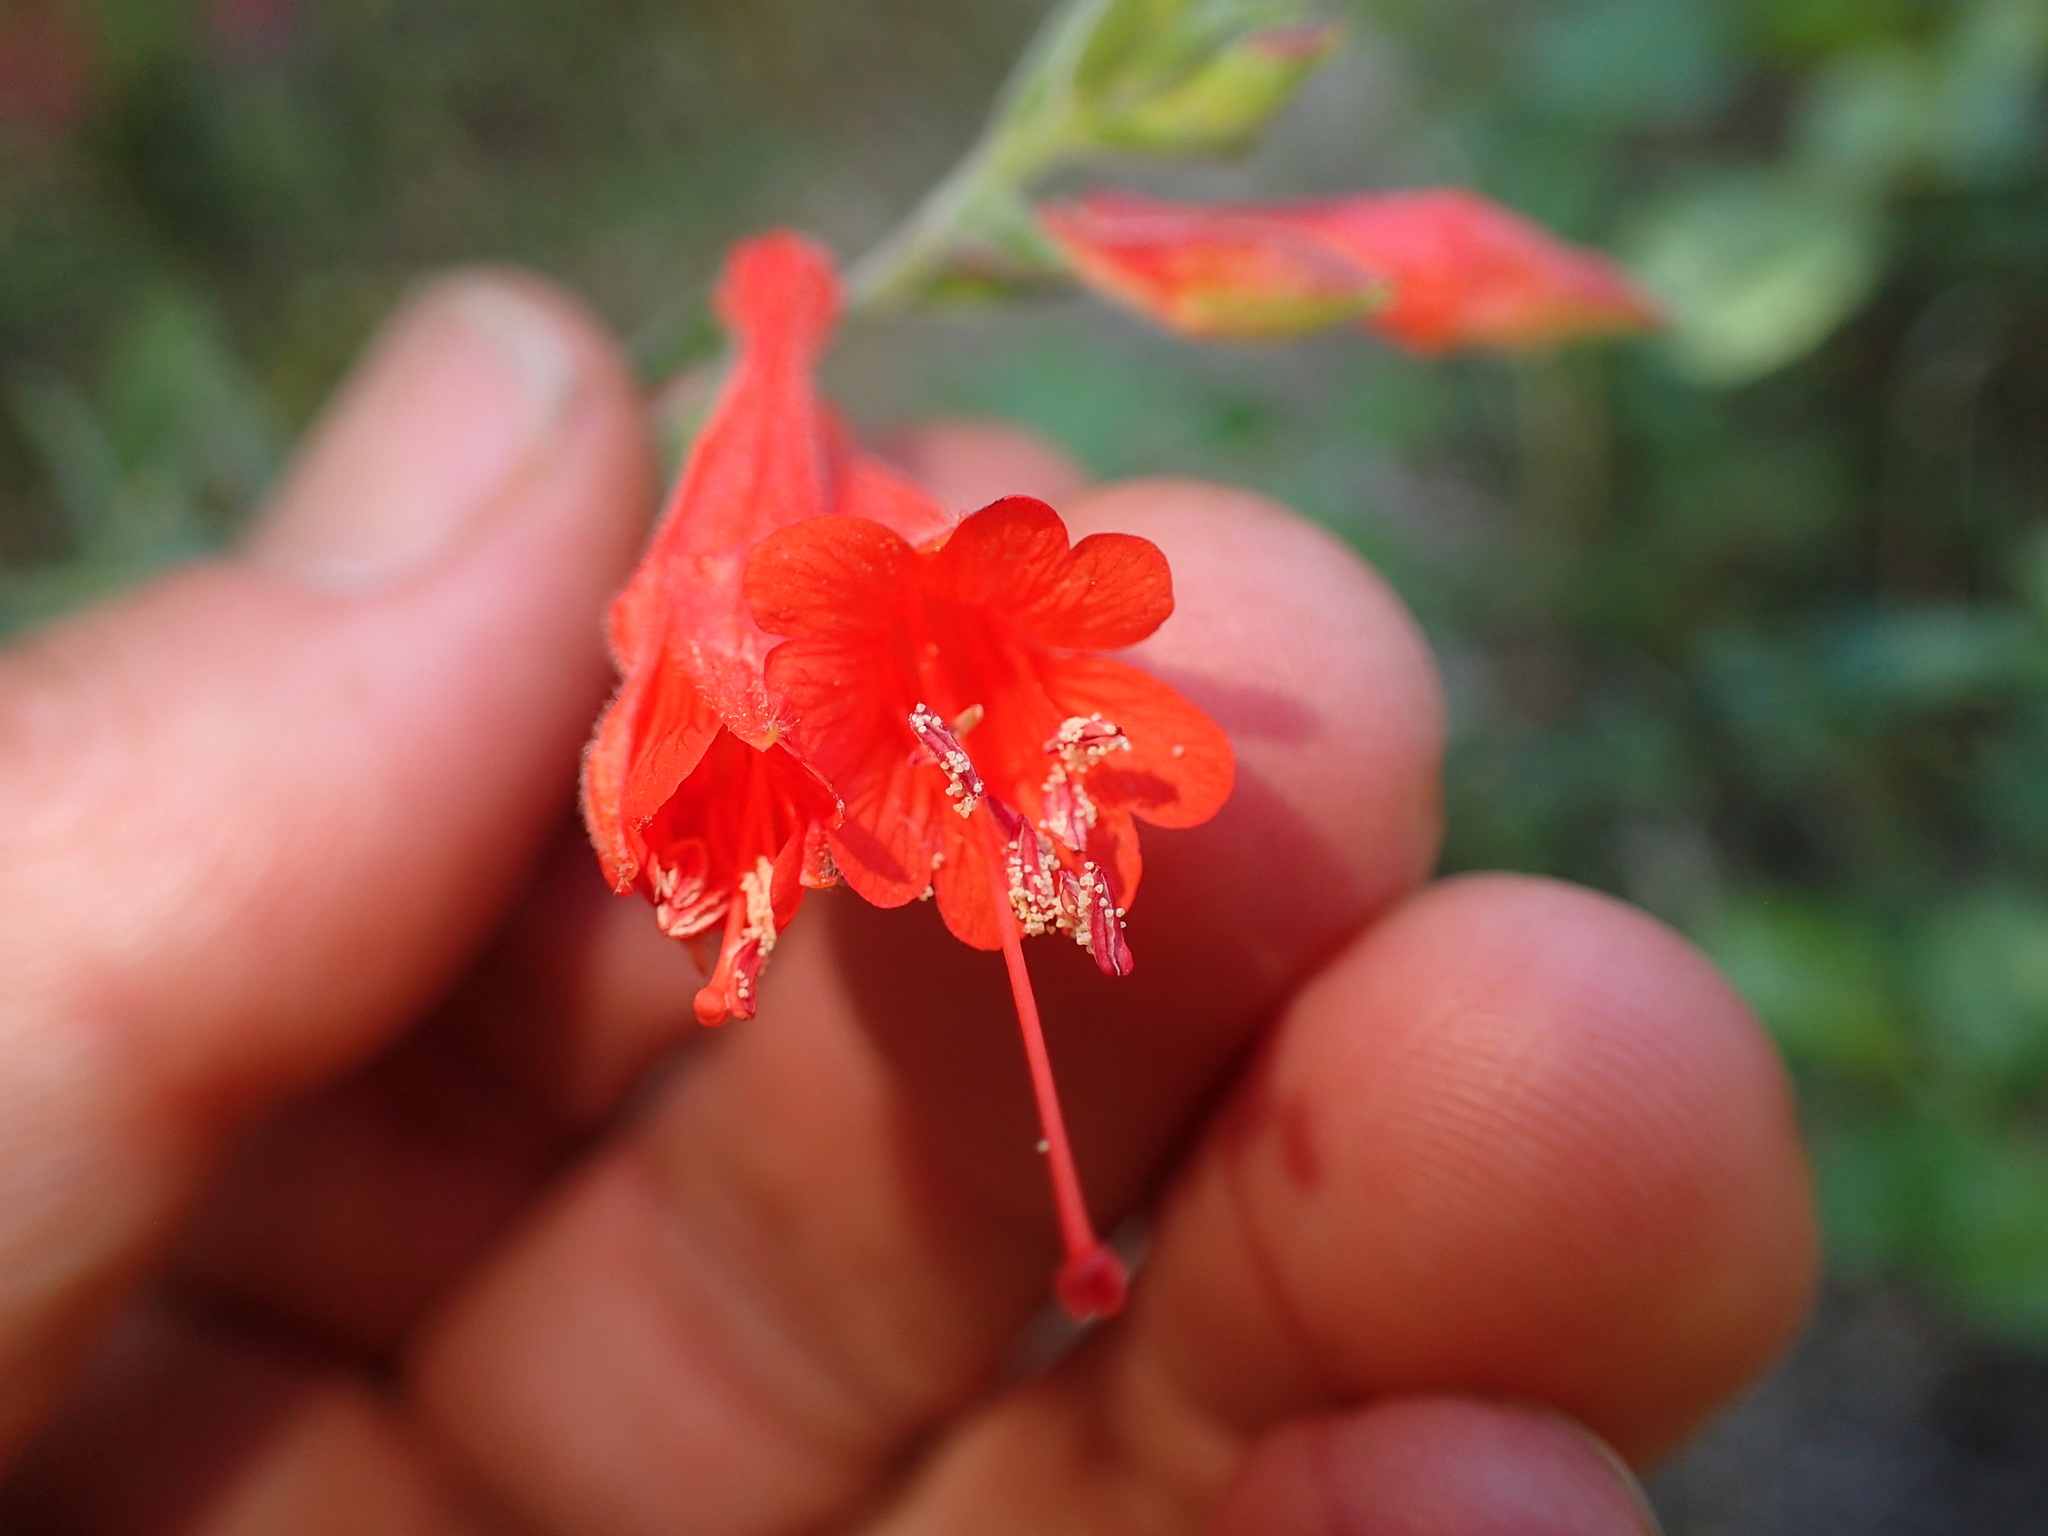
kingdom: Plantae
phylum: Tracheophyta
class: Magnoliopsida
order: Myrtales
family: Onagraceae
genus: Epilobium
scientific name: Epilobium canum
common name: California-fuchsia
